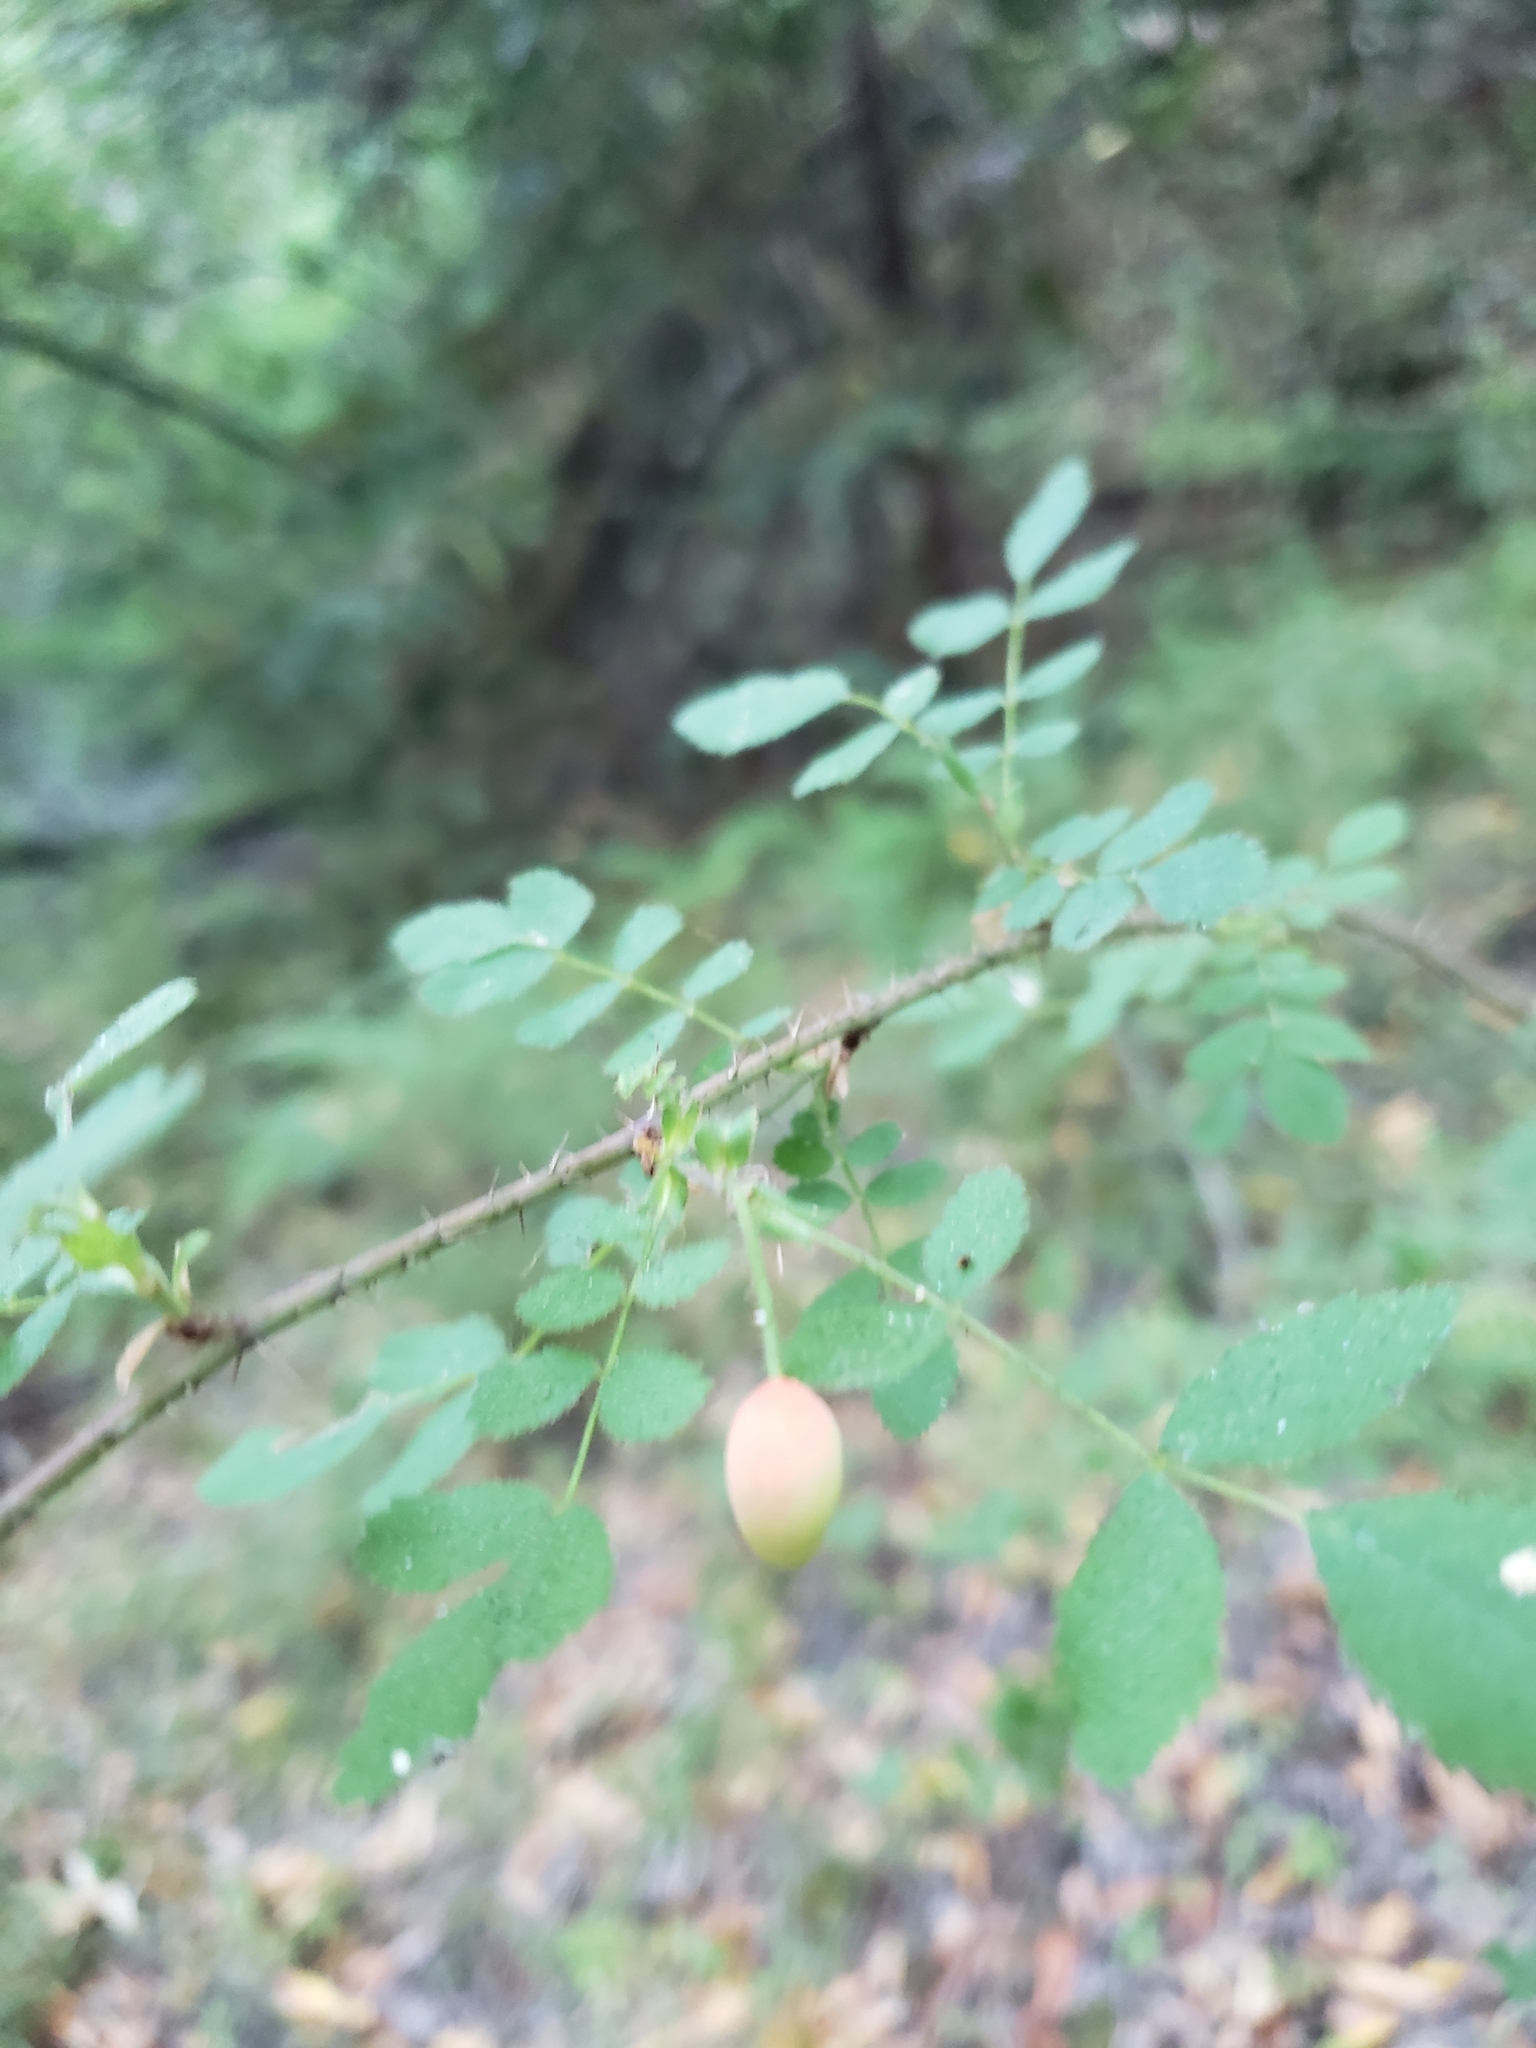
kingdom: Plantae
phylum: Tracheophyta
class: Magnoliopsida
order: Rosales
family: Rosaceae
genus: Rosa
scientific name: Rosa gymnocarpa
